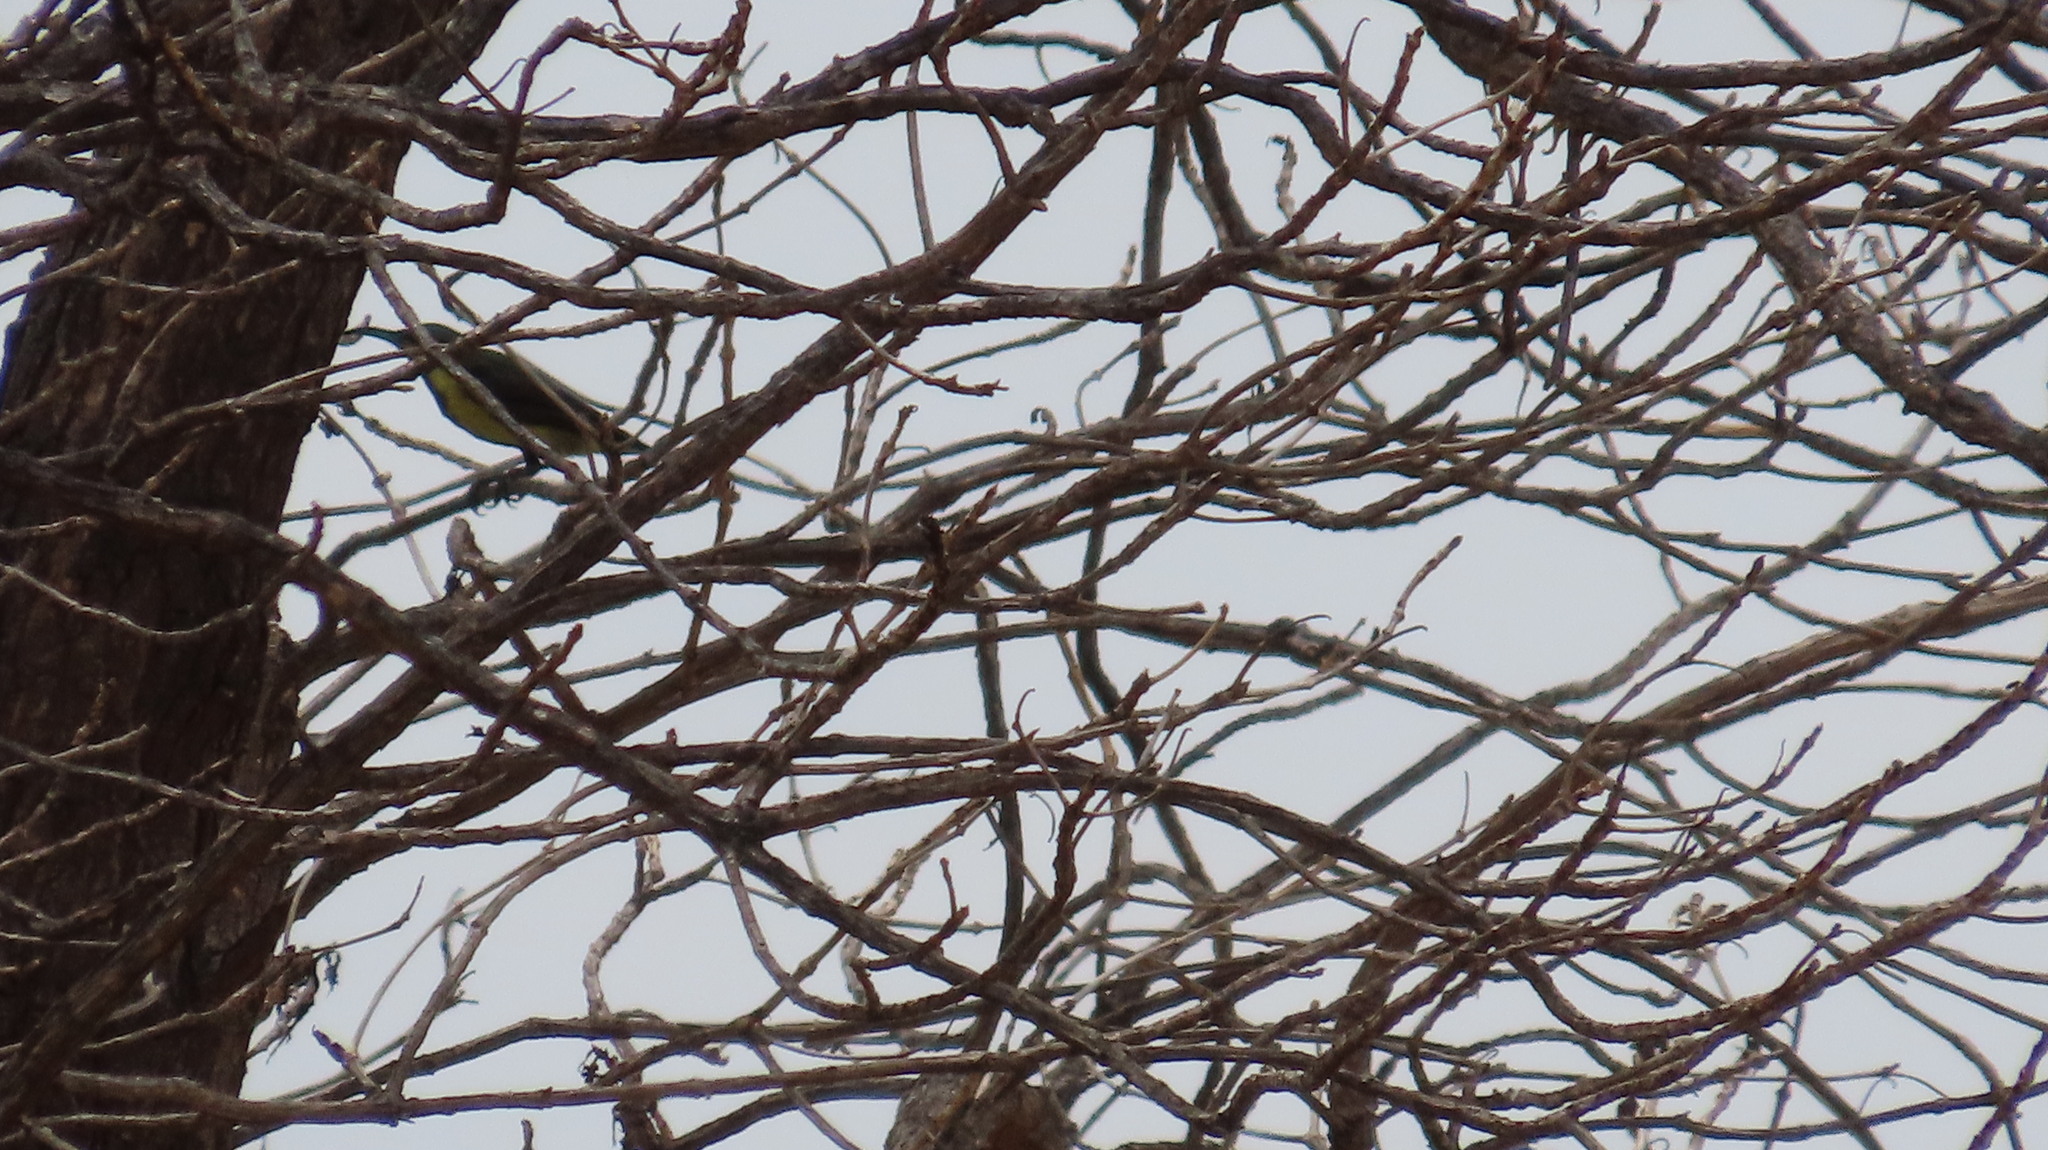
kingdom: Animalia
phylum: Chordata
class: Aves
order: Passeriformes
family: Nectariniidae
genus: Cinnyris
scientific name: Cinnyris asiaticus
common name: Purple sunbird
